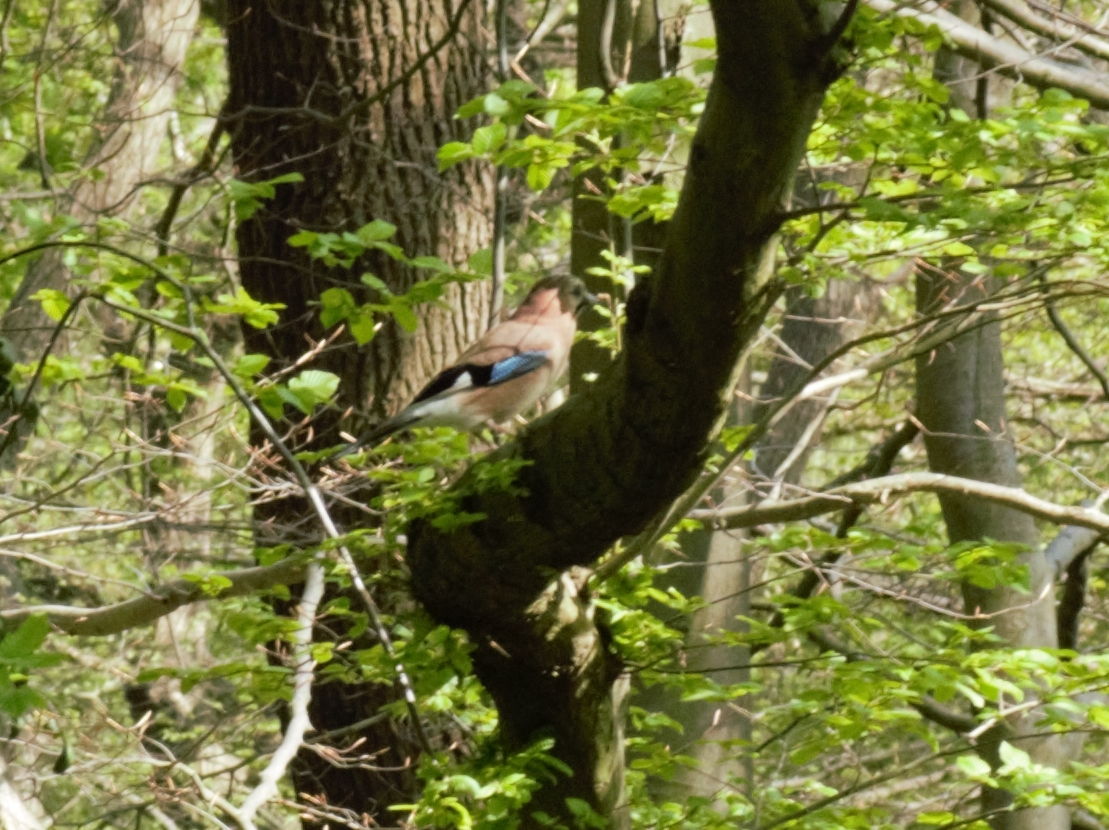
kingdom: Animalia
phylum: Chordata
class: Aves
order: Passeriformes
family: Corvidae
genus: Garrulus
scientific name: Garrulus glandarius
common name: Eurasian jay
